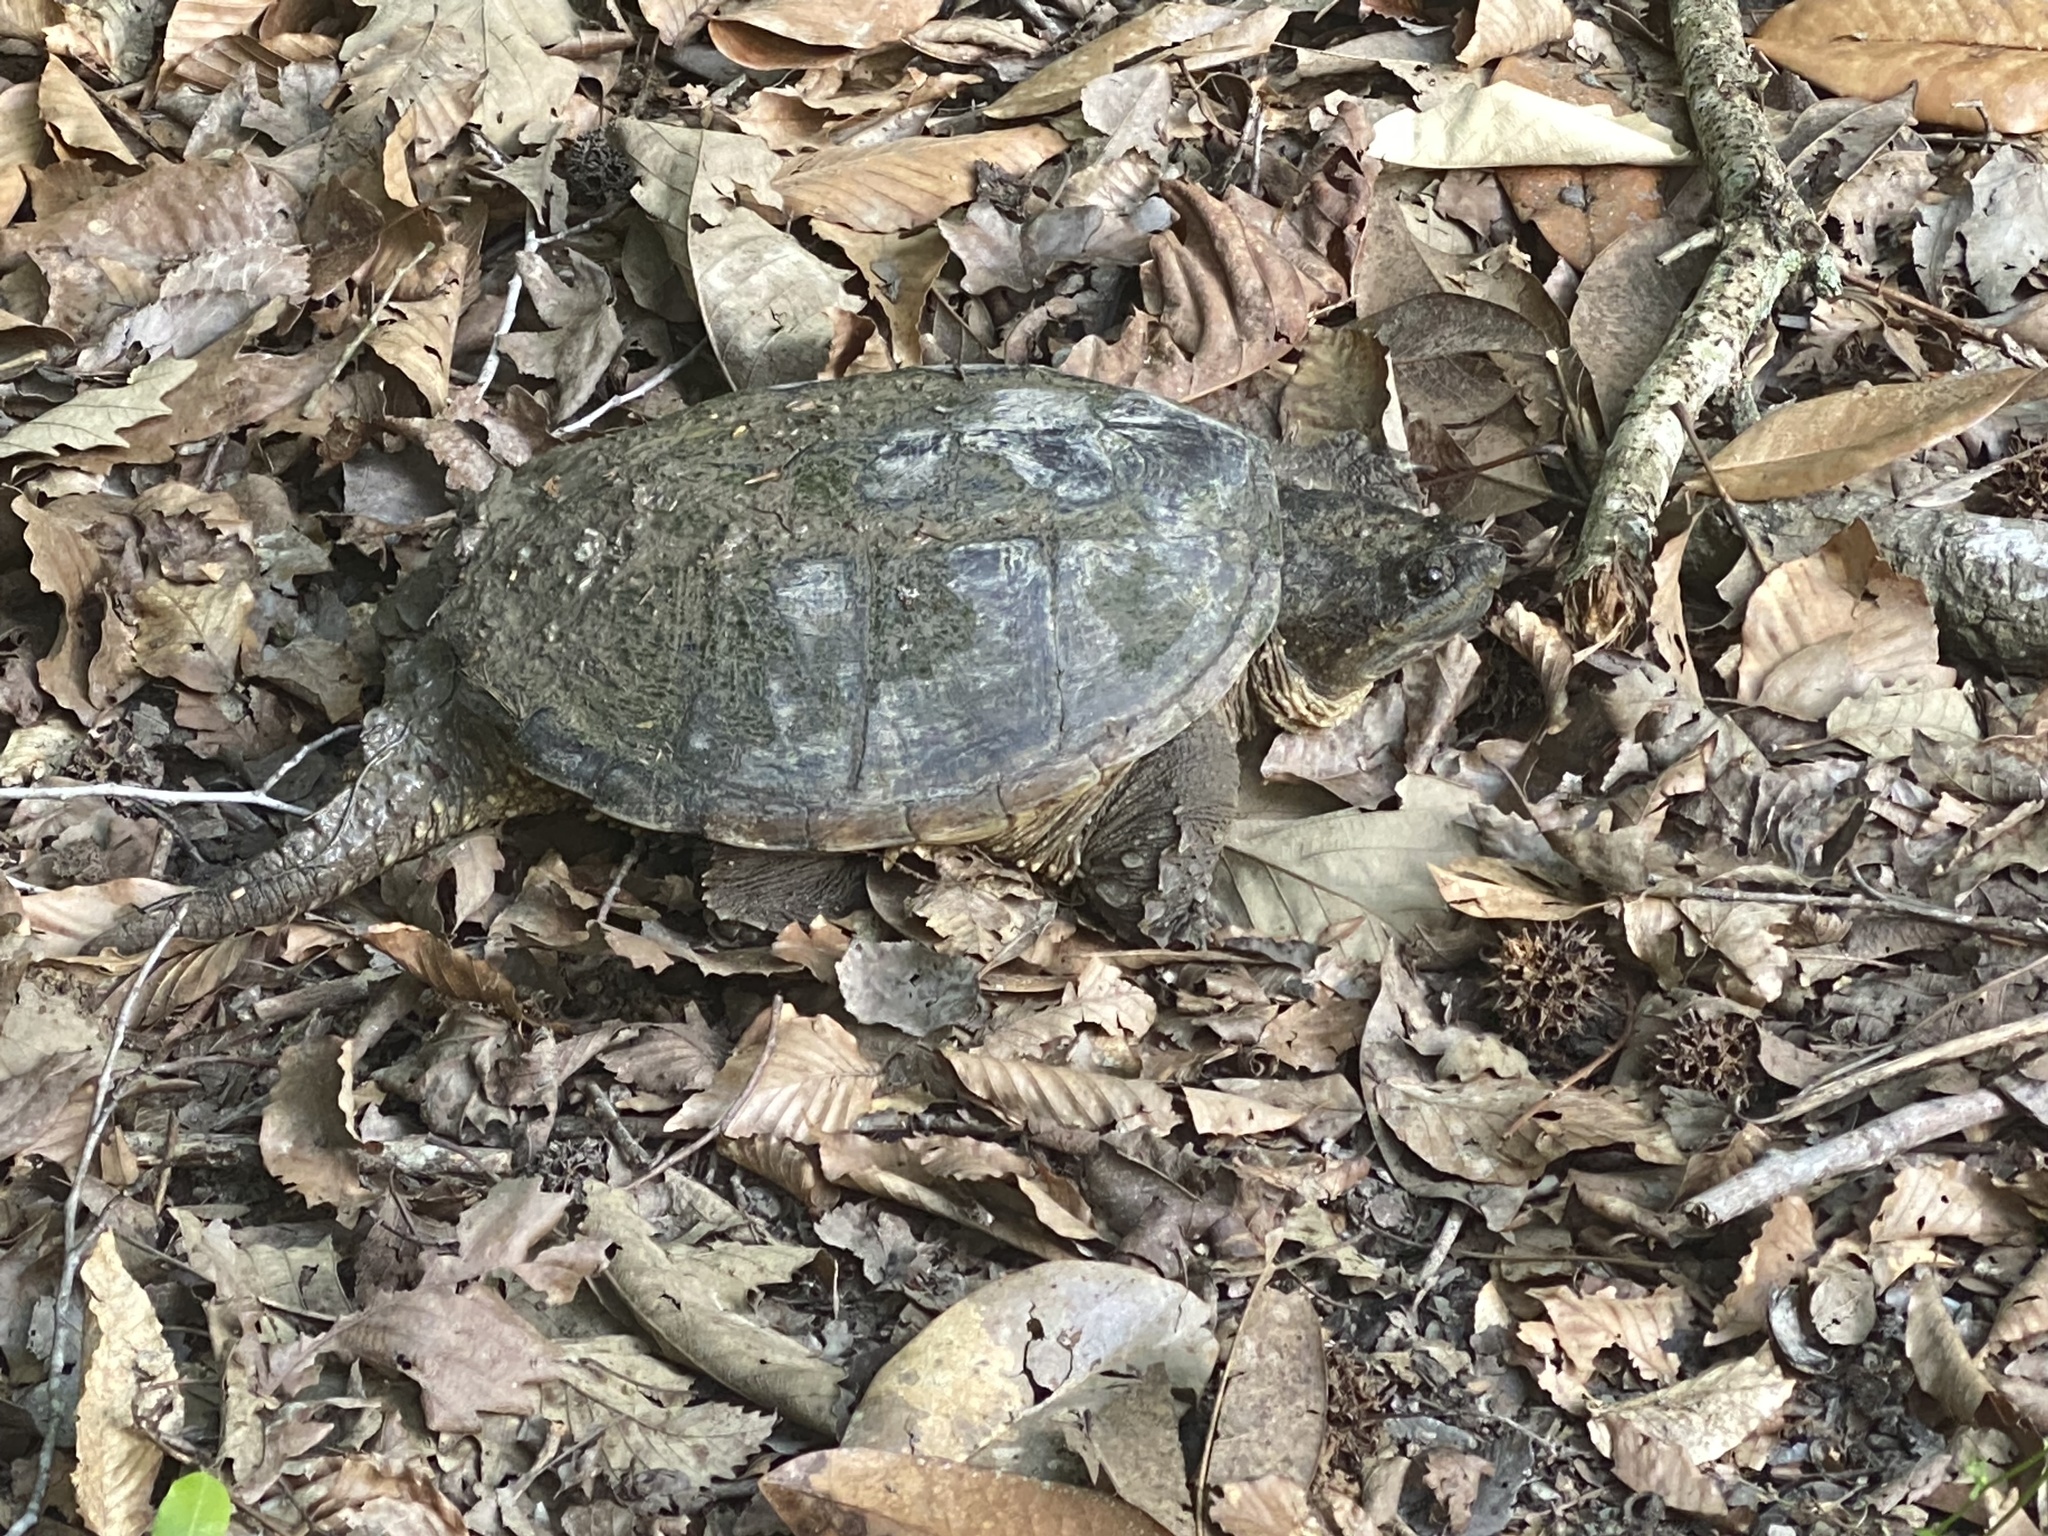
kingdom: Animalia
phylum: Chordata
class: Testudines
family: Chelydridae
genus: Chelydra
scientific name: Chelydra serpentina
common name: Common snapping turtle
